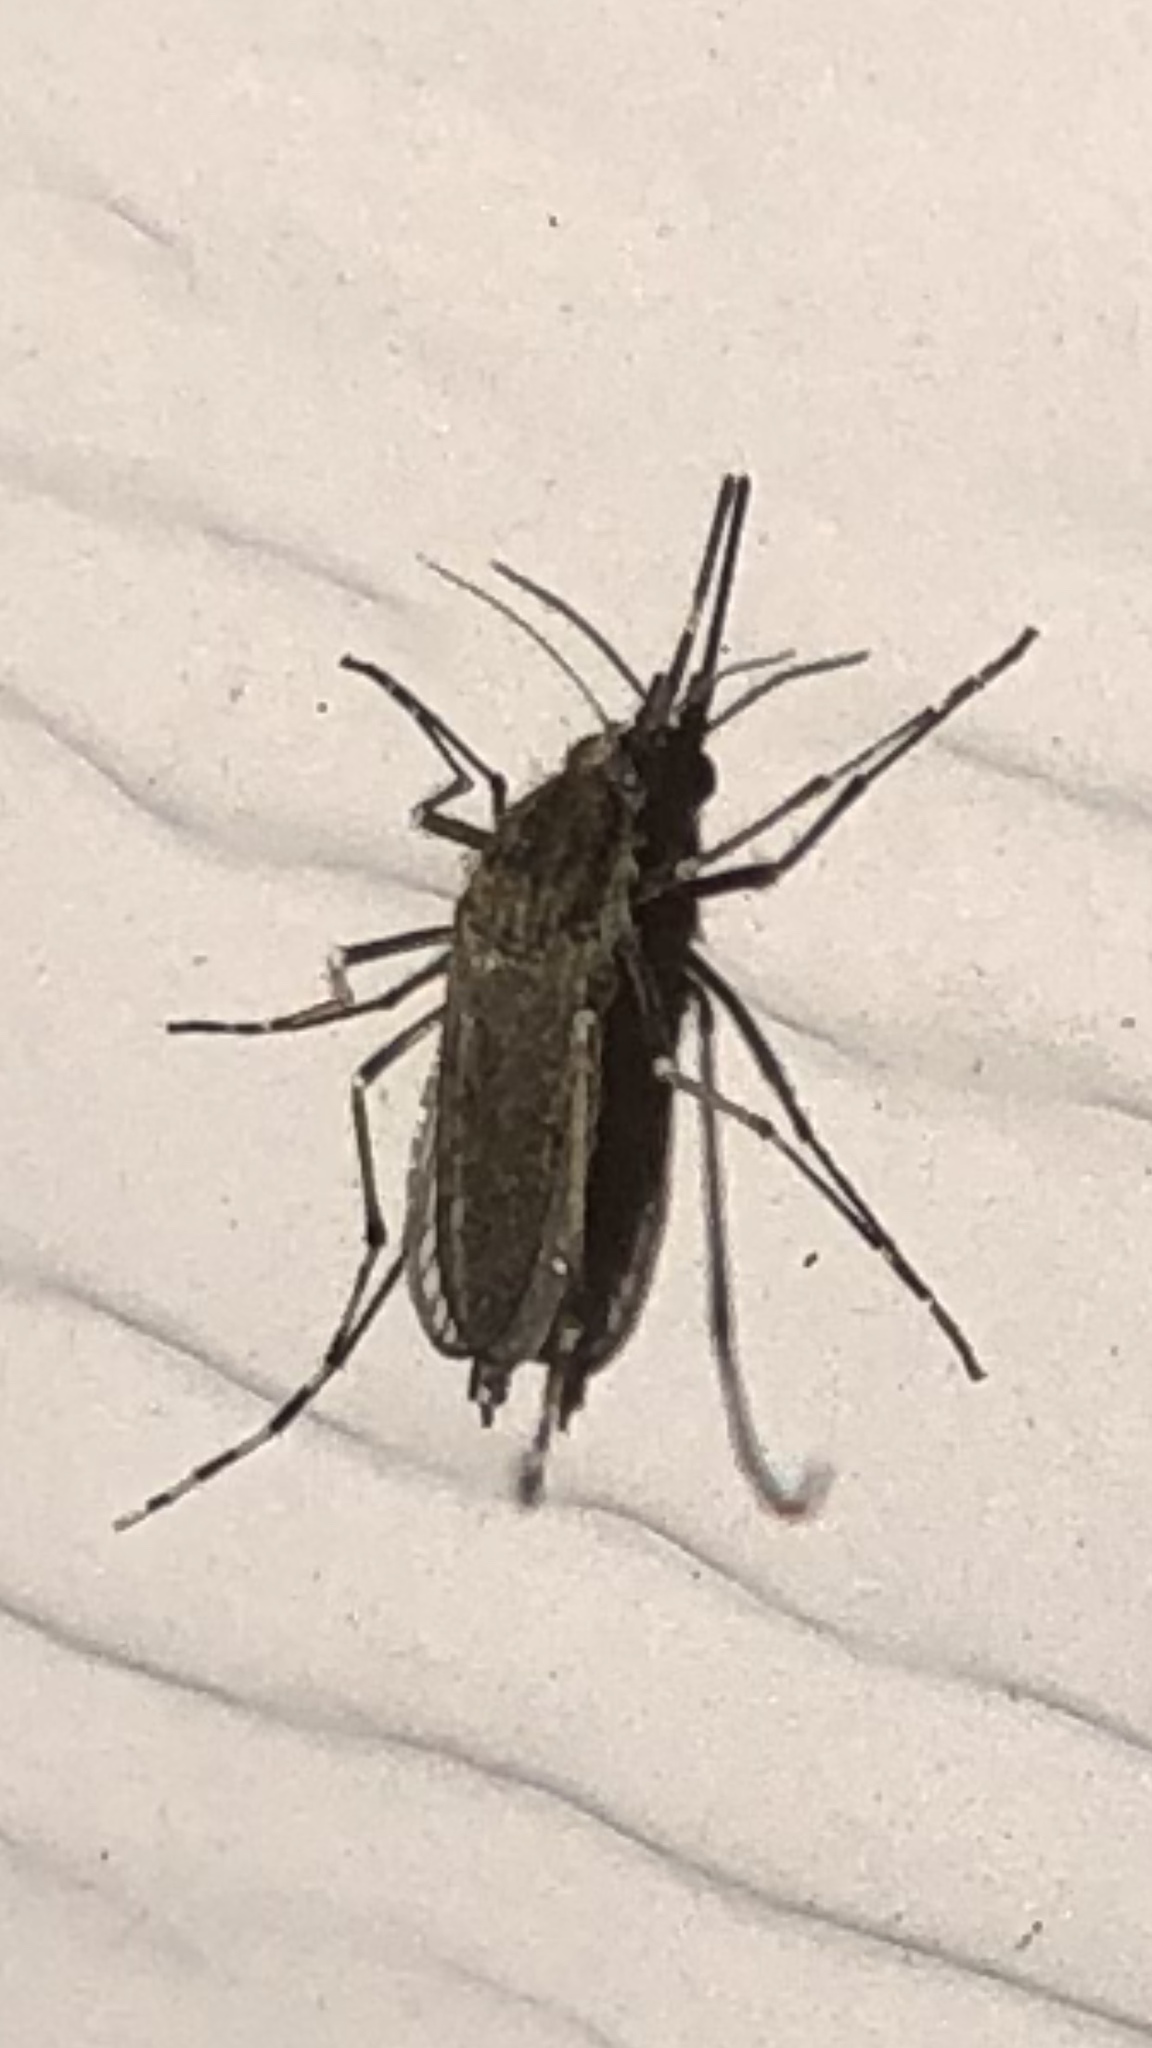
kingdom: Animalia
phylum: Arthropoda
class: Insecta
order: Diptera
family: Culicidae
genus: Aedes
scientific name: Aedes sollicitans
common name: Saltmarsh mosquito
